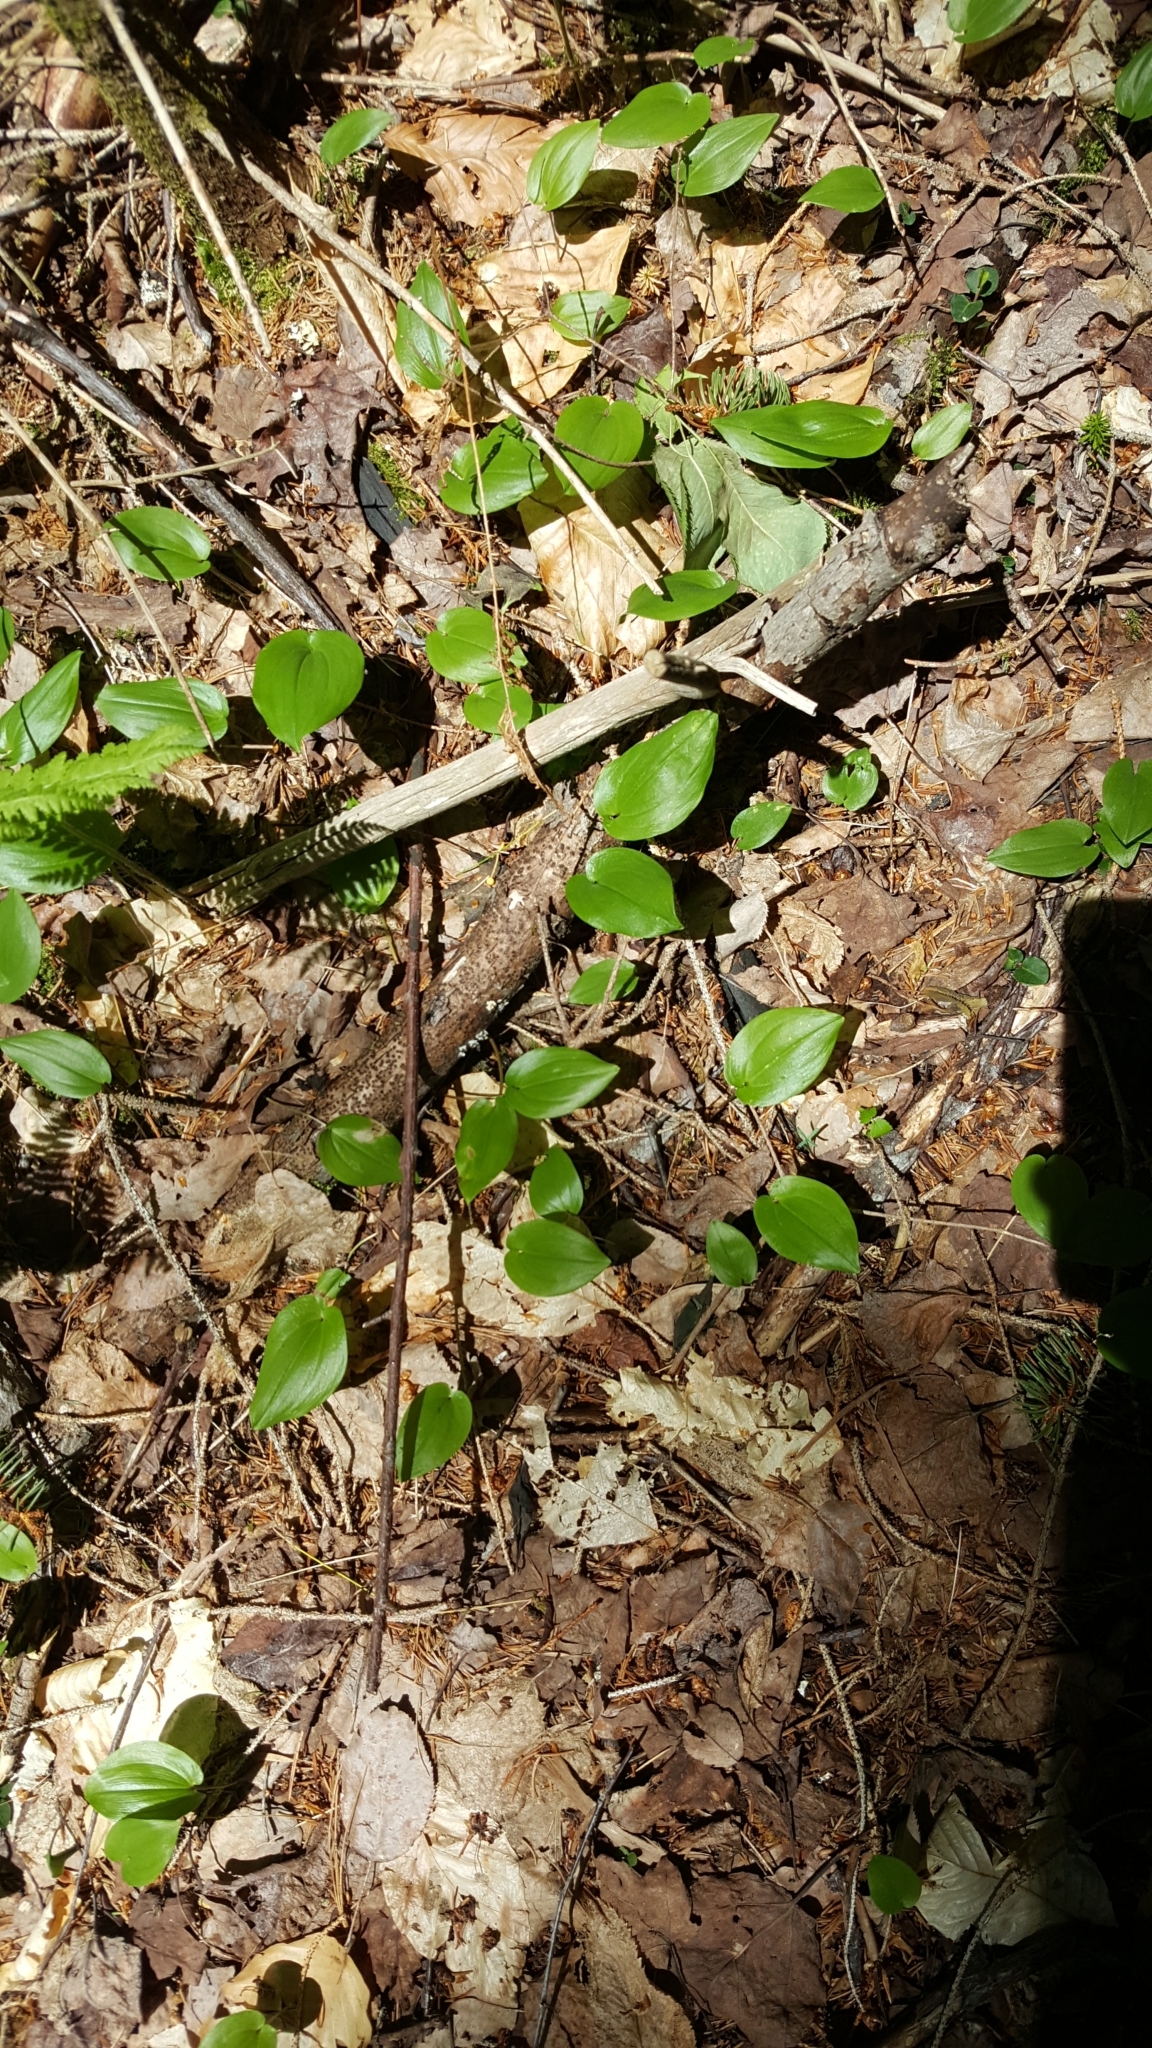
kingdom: Plantae
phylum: Tracheophyta
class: Liliopsida
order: Asparagales
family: Asparagaceae
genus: Maianthemum
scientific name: Maianthemum canadense
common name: False lily-of-the-valley
